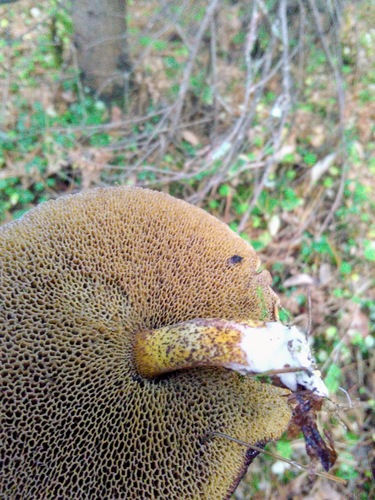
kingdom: Fungi
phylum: Basidiomycota
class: Agaricomycetes
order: Boletales
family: Suillaceae
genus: Suillus
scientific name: Suillus punctipes
